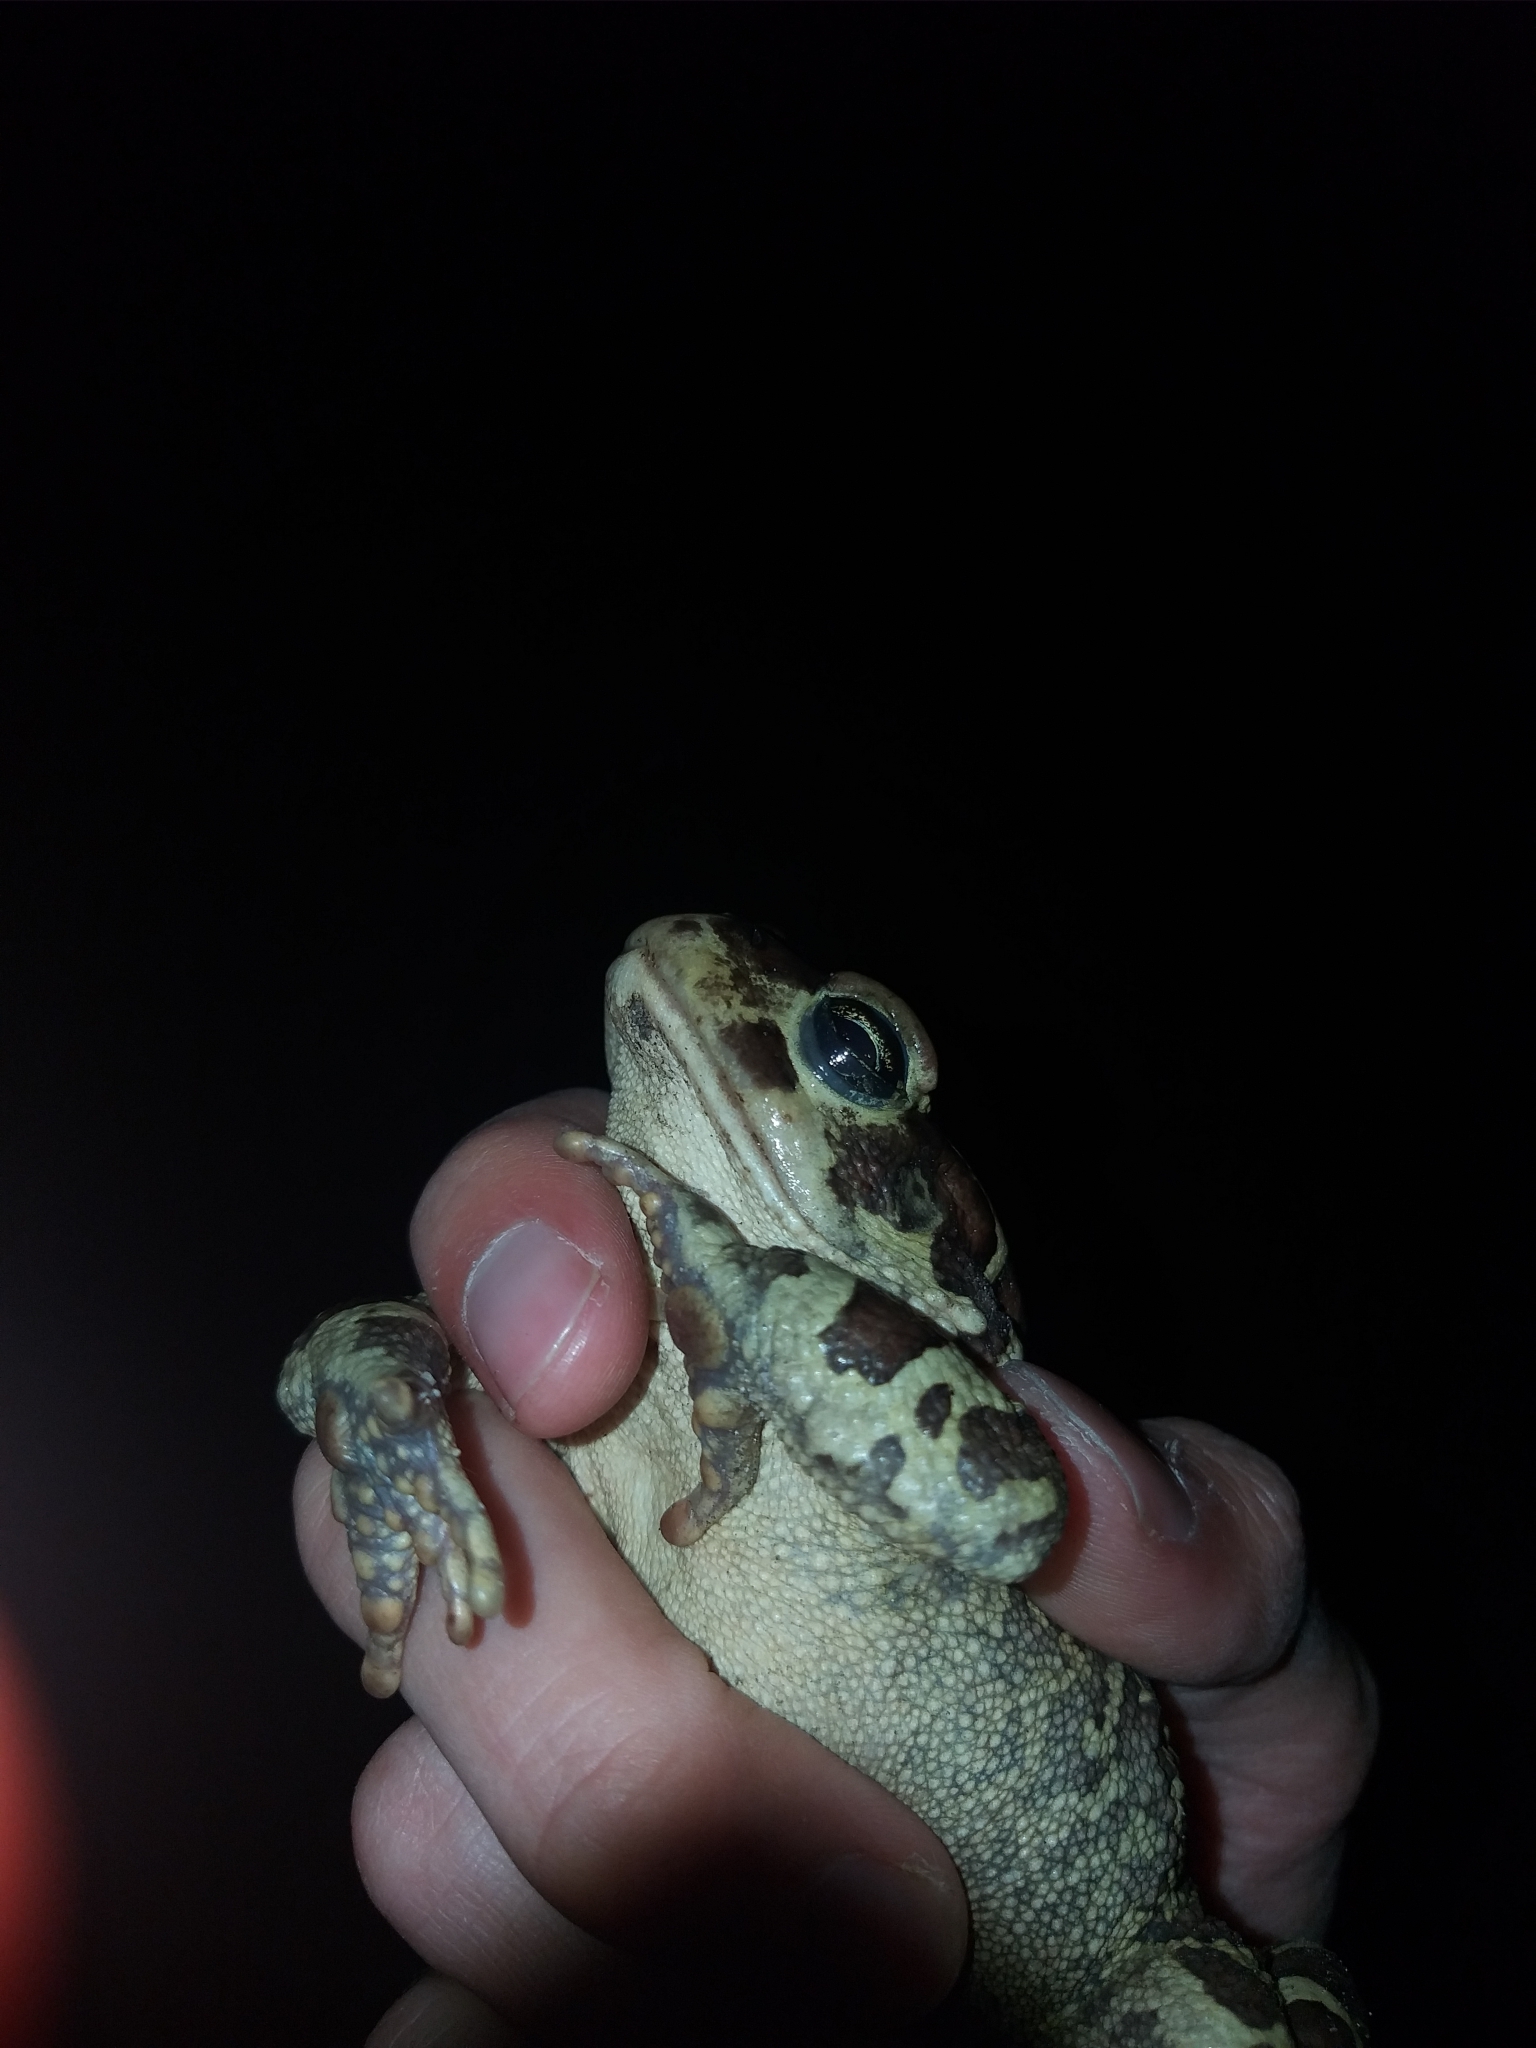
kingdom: Animalia
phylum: Chordata
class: Amphibia
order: Anura
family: Bufonidae
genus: Sclerophrys
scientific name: Sclerophrys pantherina
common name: Panther toad
